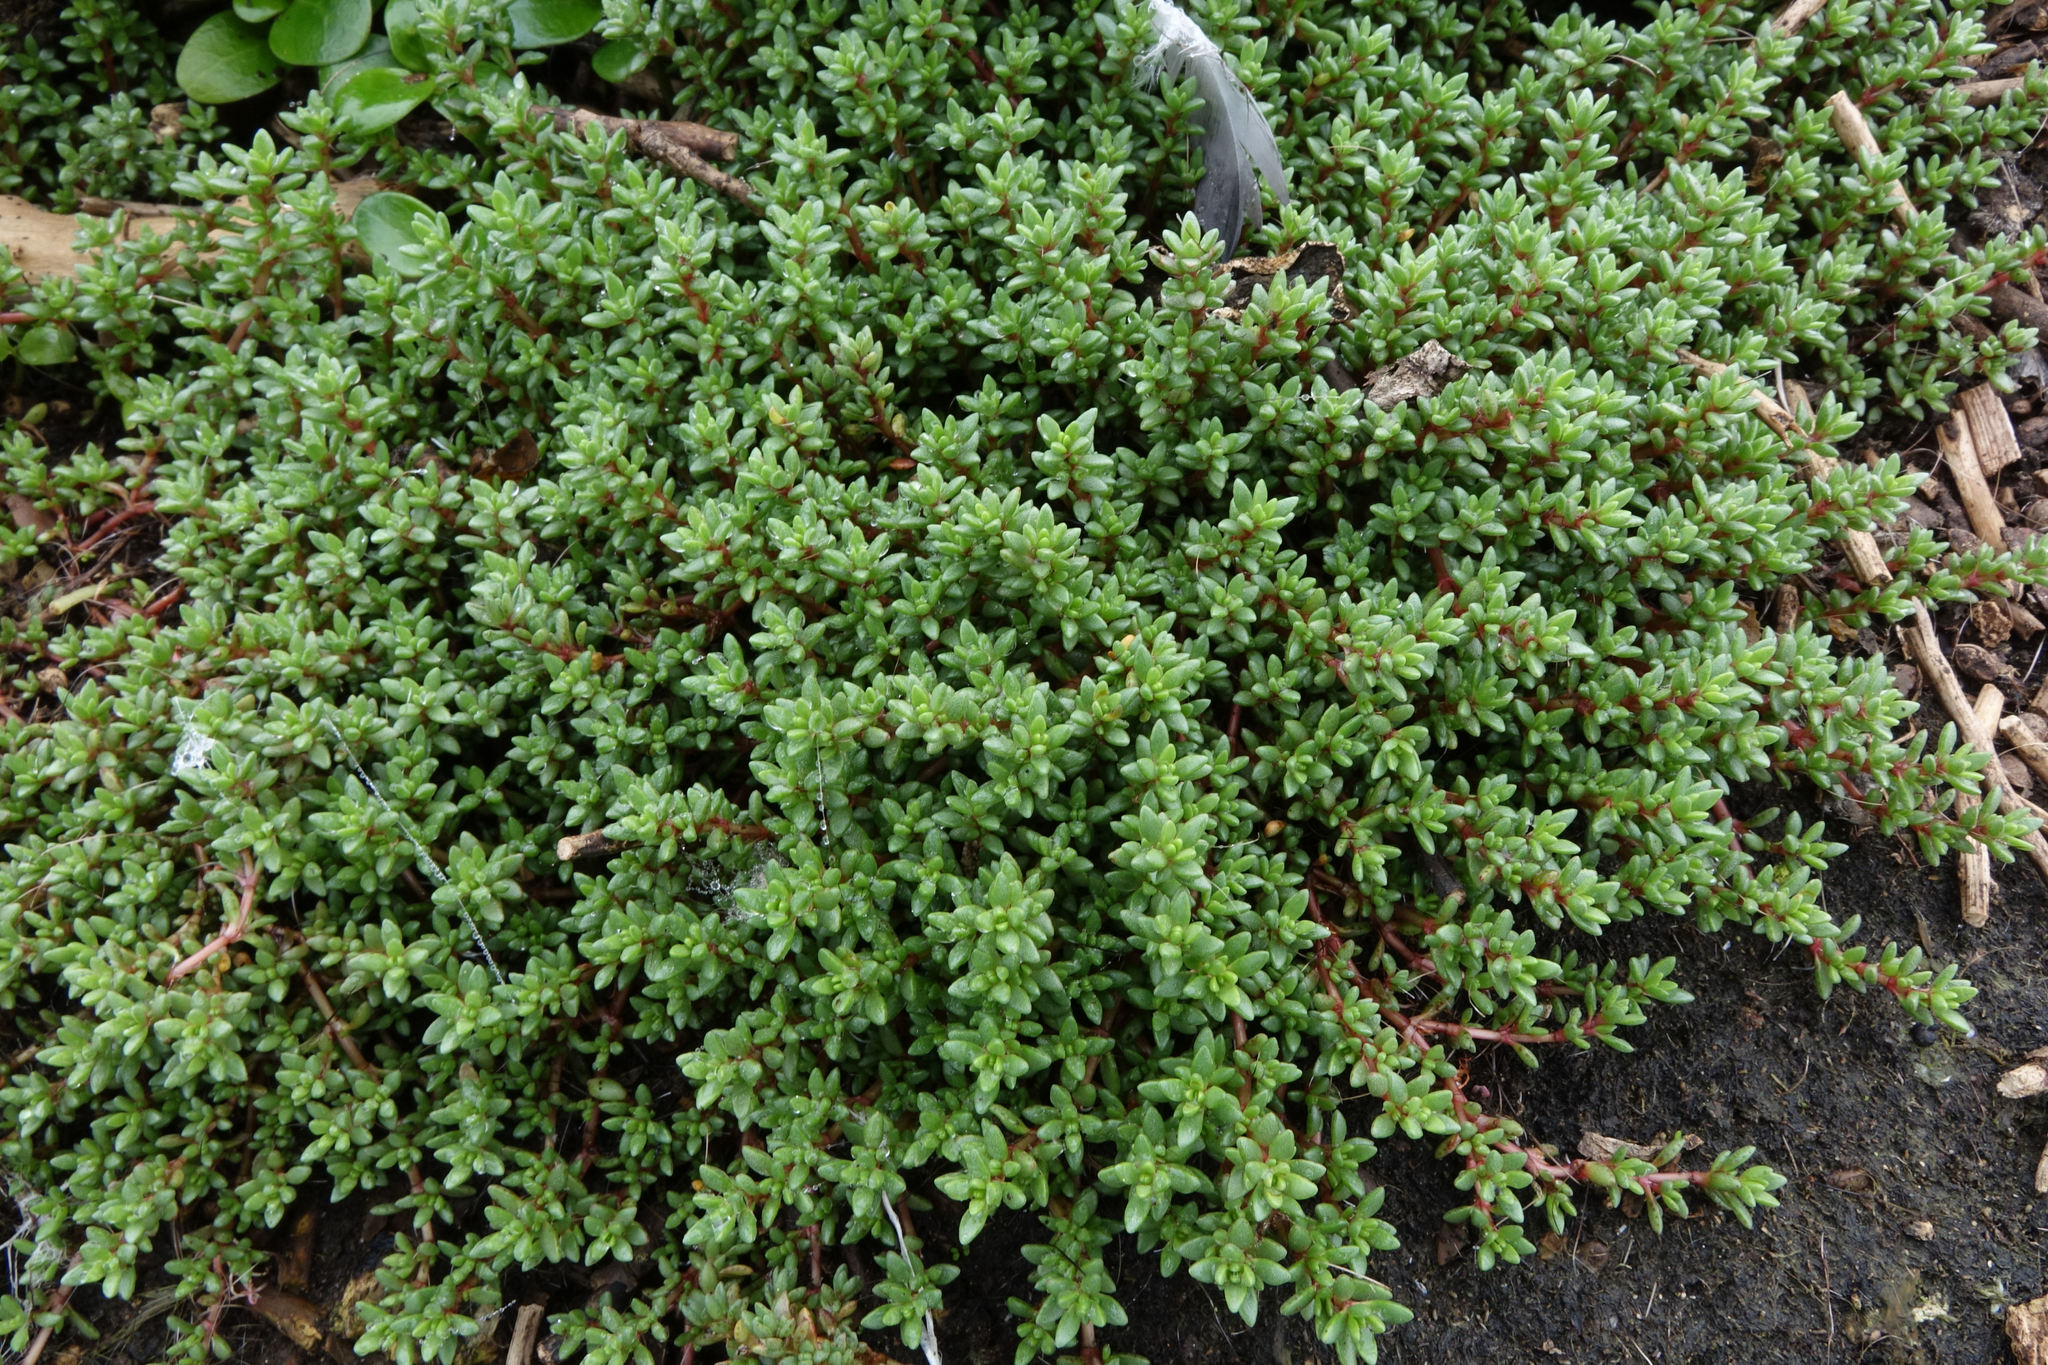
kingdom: Plantae
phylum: Tracheophyta
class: Magnoliopsida
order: Saxifragales
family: Crassulaceae
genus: Crassula
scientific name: Crassula moschata
